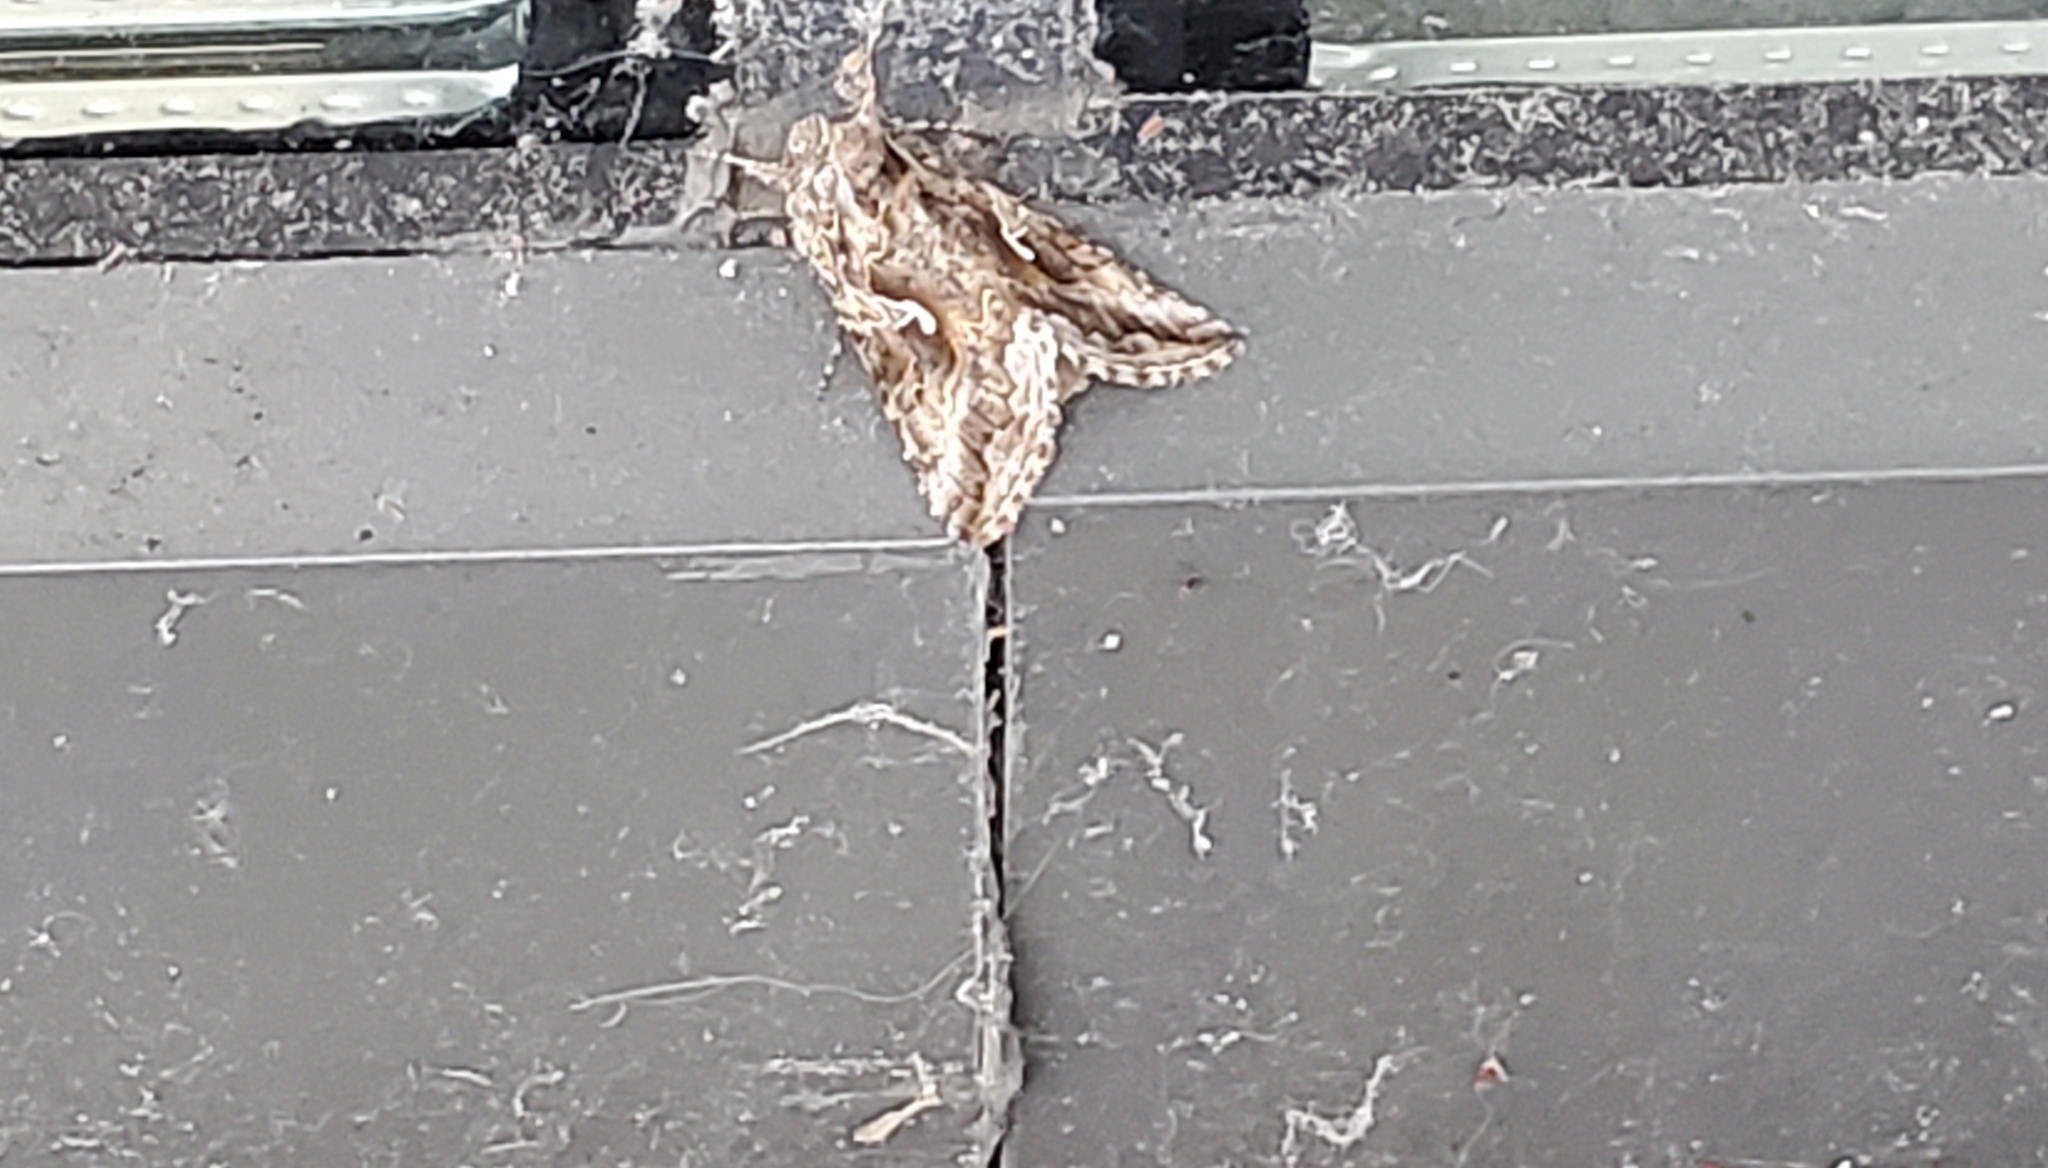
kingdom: Animalia
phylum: Arthropoda
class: Insecta
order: Lepidoptera
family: Noctuidae
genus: Autographa
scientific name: Autographa californica
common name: Alfalfa looper
